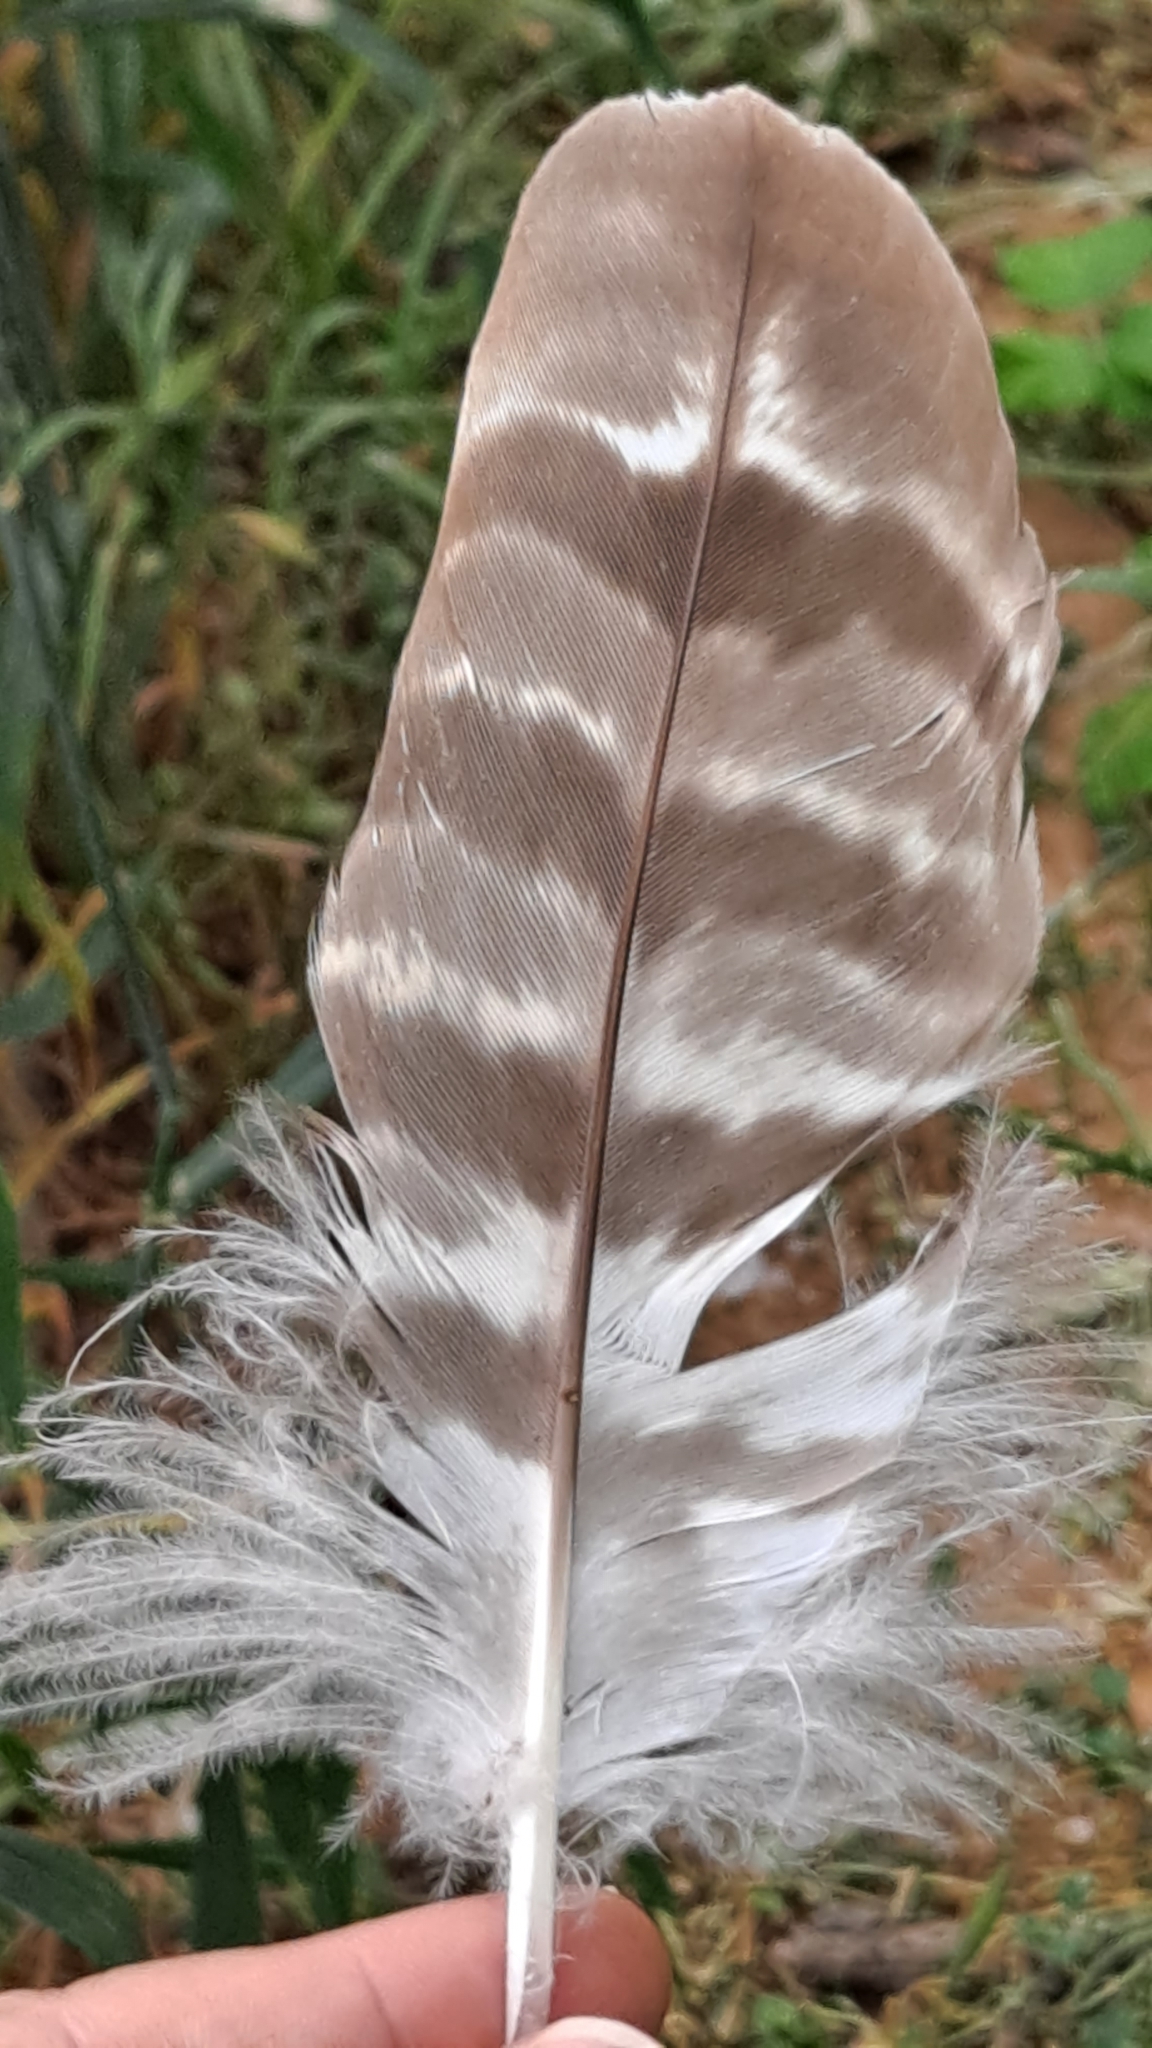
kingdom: Animalia
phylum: Chordata
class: Aves
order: Accipitriformes
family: Accipitridae
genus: Accipiter
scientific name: Accipiter gentilis
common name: Northern goshawk
